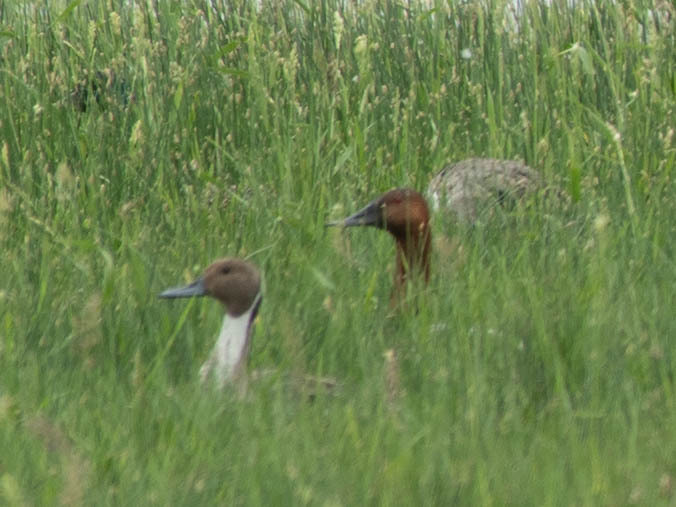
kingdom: Animalia
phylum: Chordata
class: Aves
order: Anseriformes
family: Anatidae
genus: Aythya
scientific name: Aythya valisineria
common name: Canvasback
